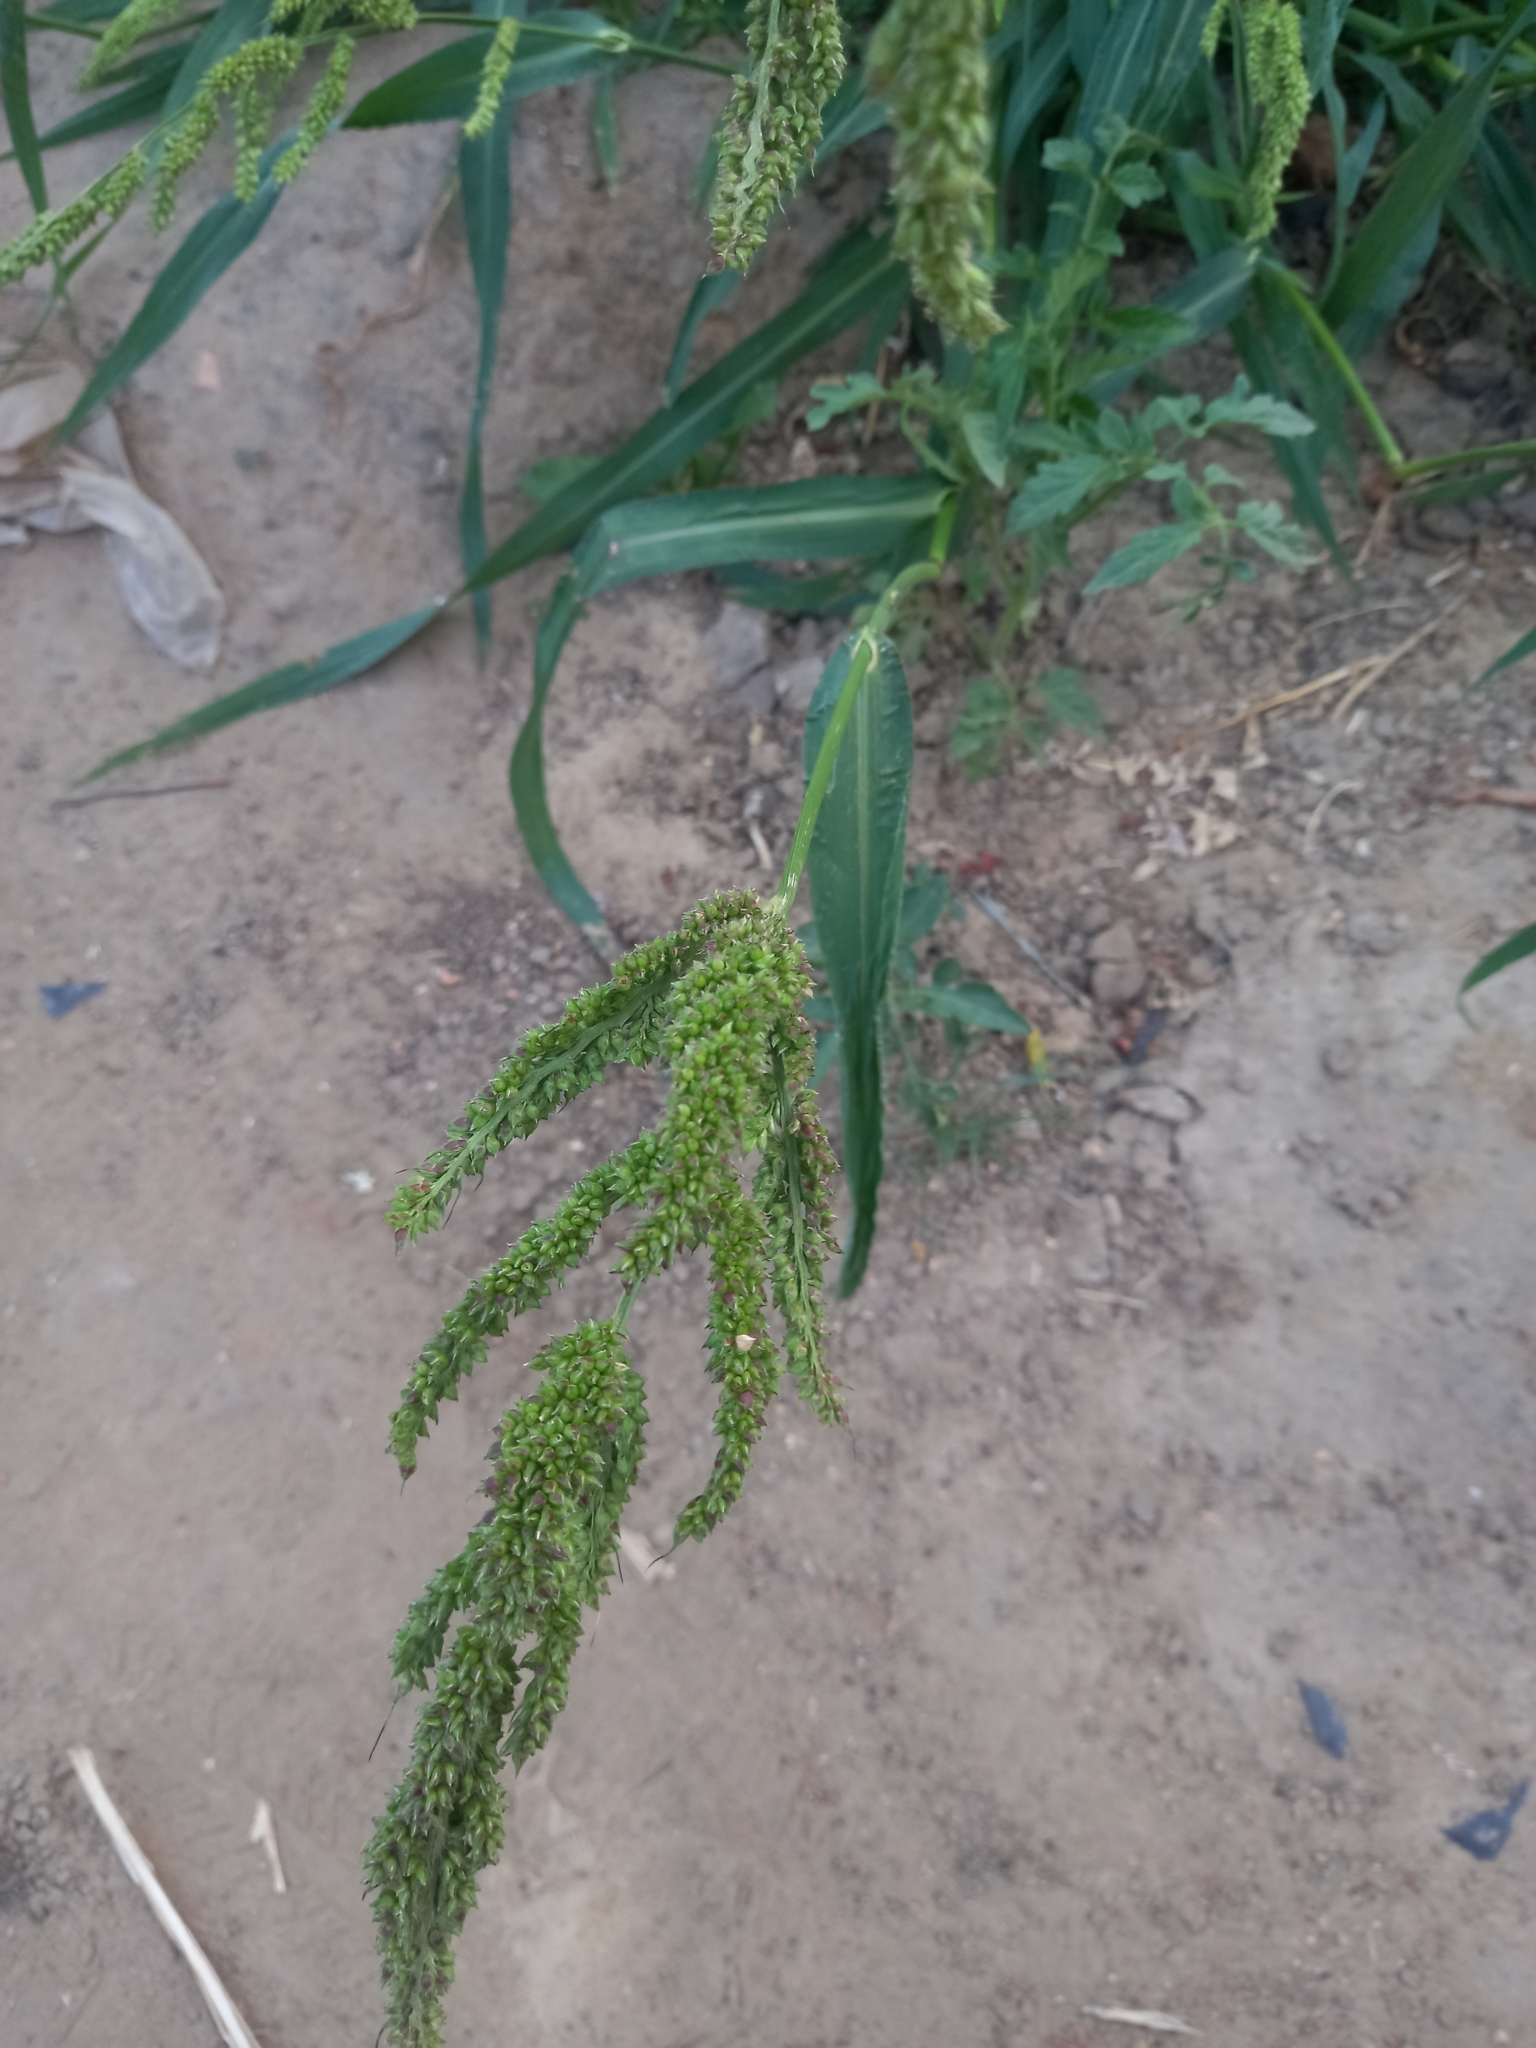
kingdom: Plantae
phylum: Tracheophyta
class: Liliopsida
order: Poales
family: Poaceae
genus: Echinochloa
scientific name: Echinochloa crus-galli
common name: Cockspur
